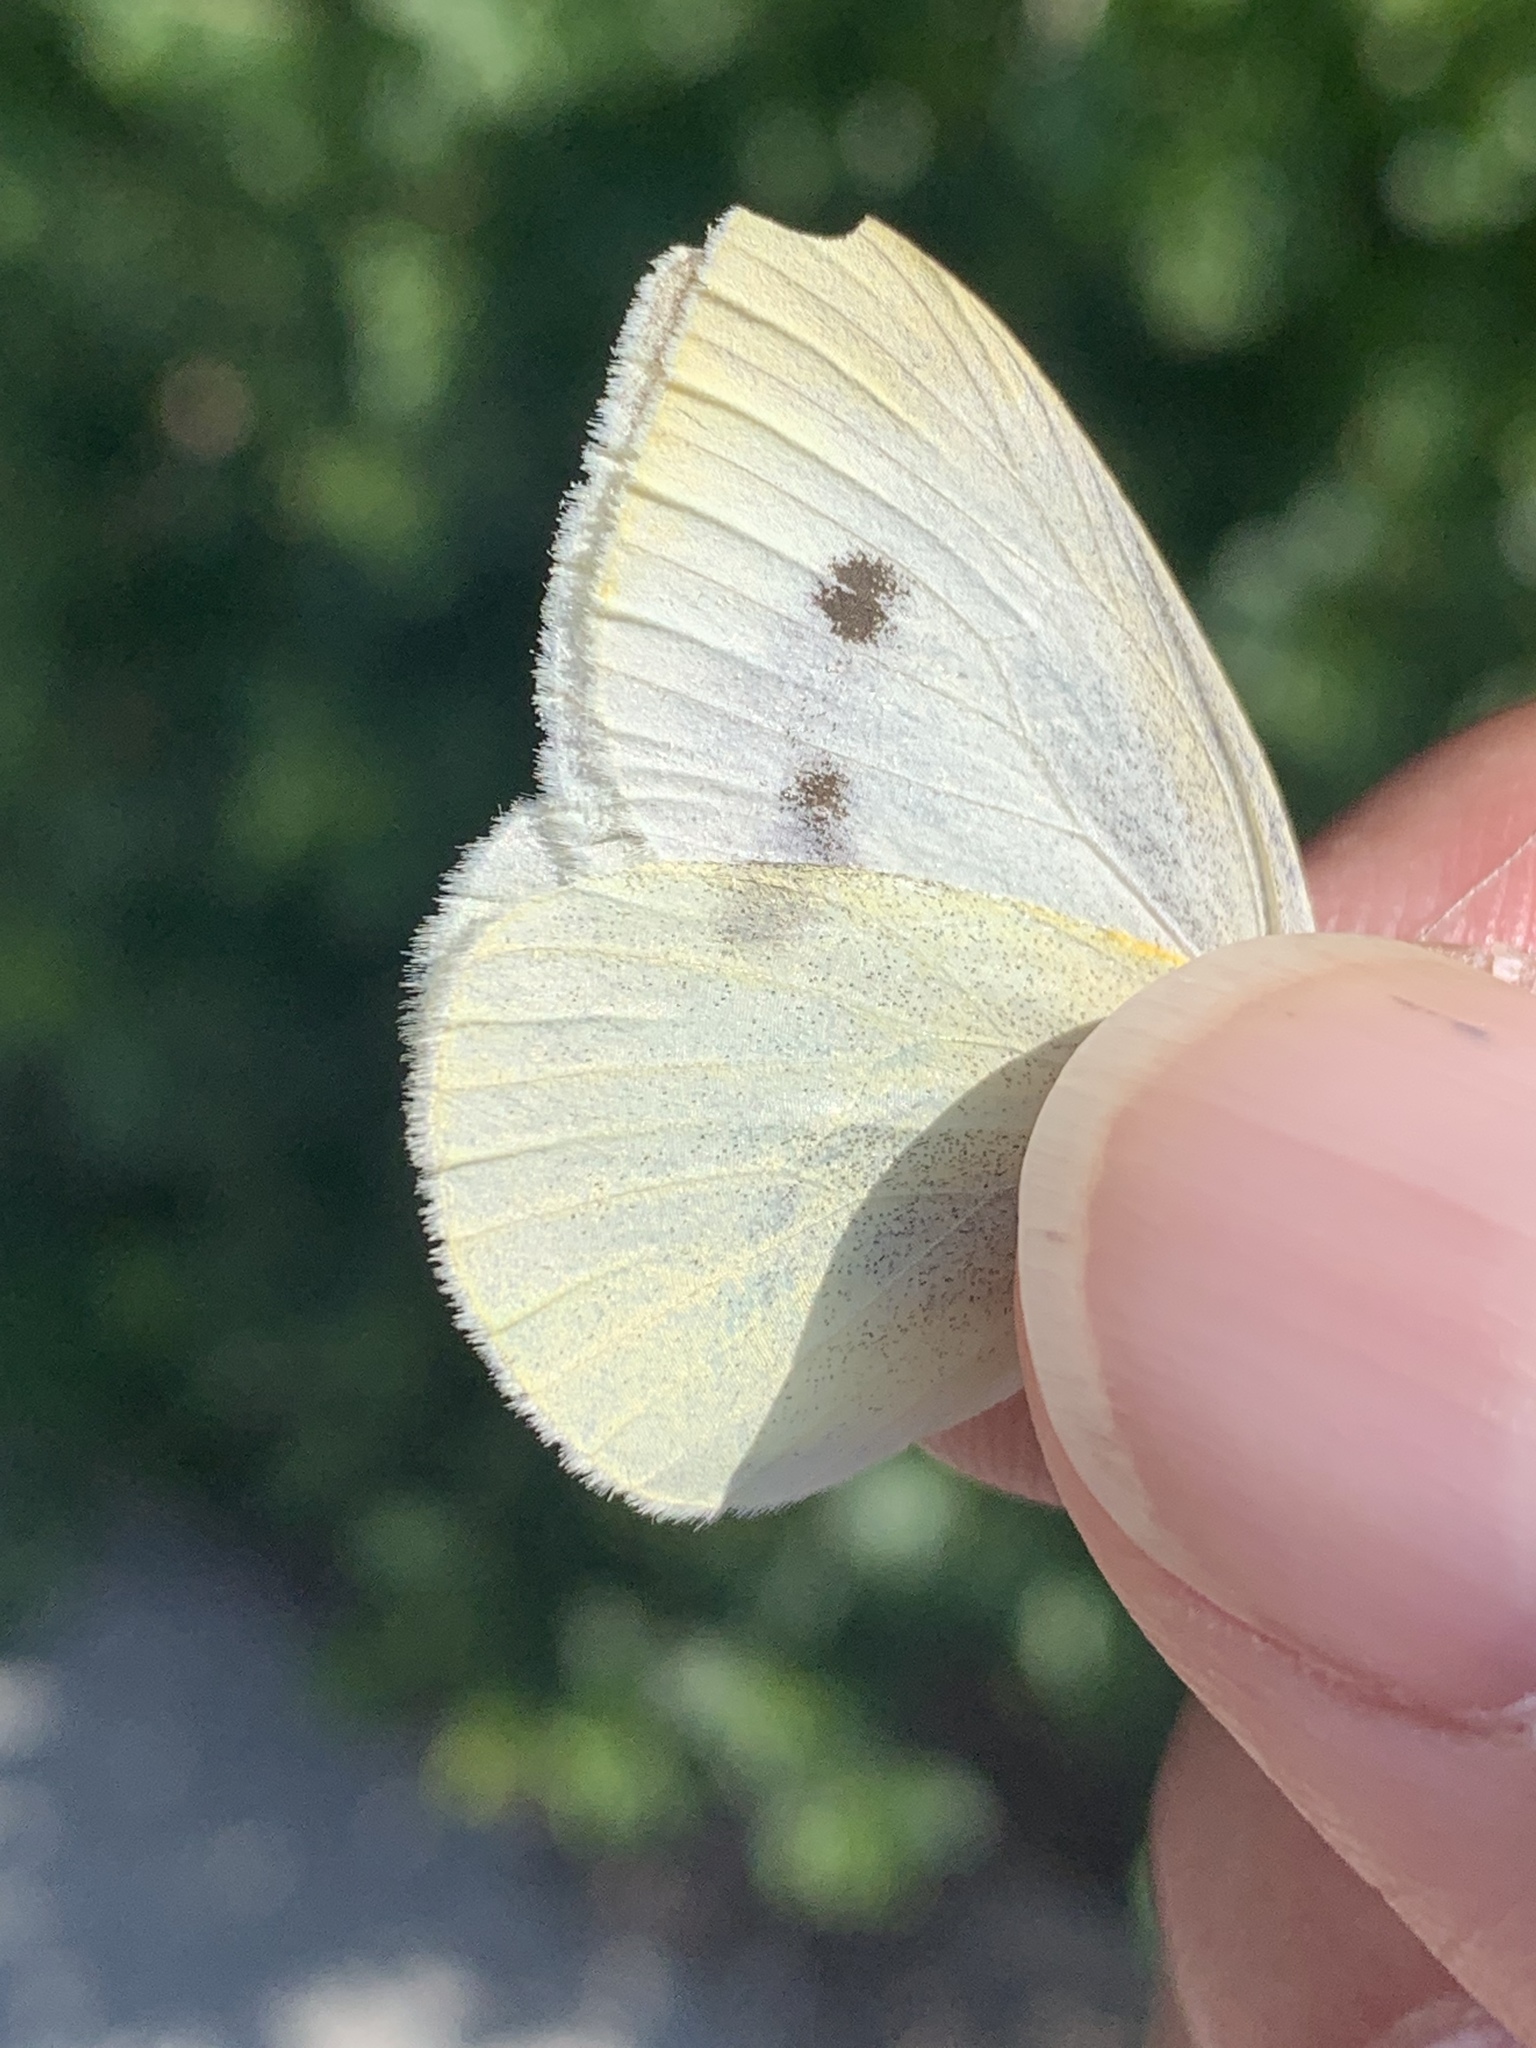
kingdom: Animalia
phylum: Arthropoda
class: Insecta
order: Lepidoptera
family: Pieridae
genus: Pieris
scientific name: Pieris rapae
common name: Small white
